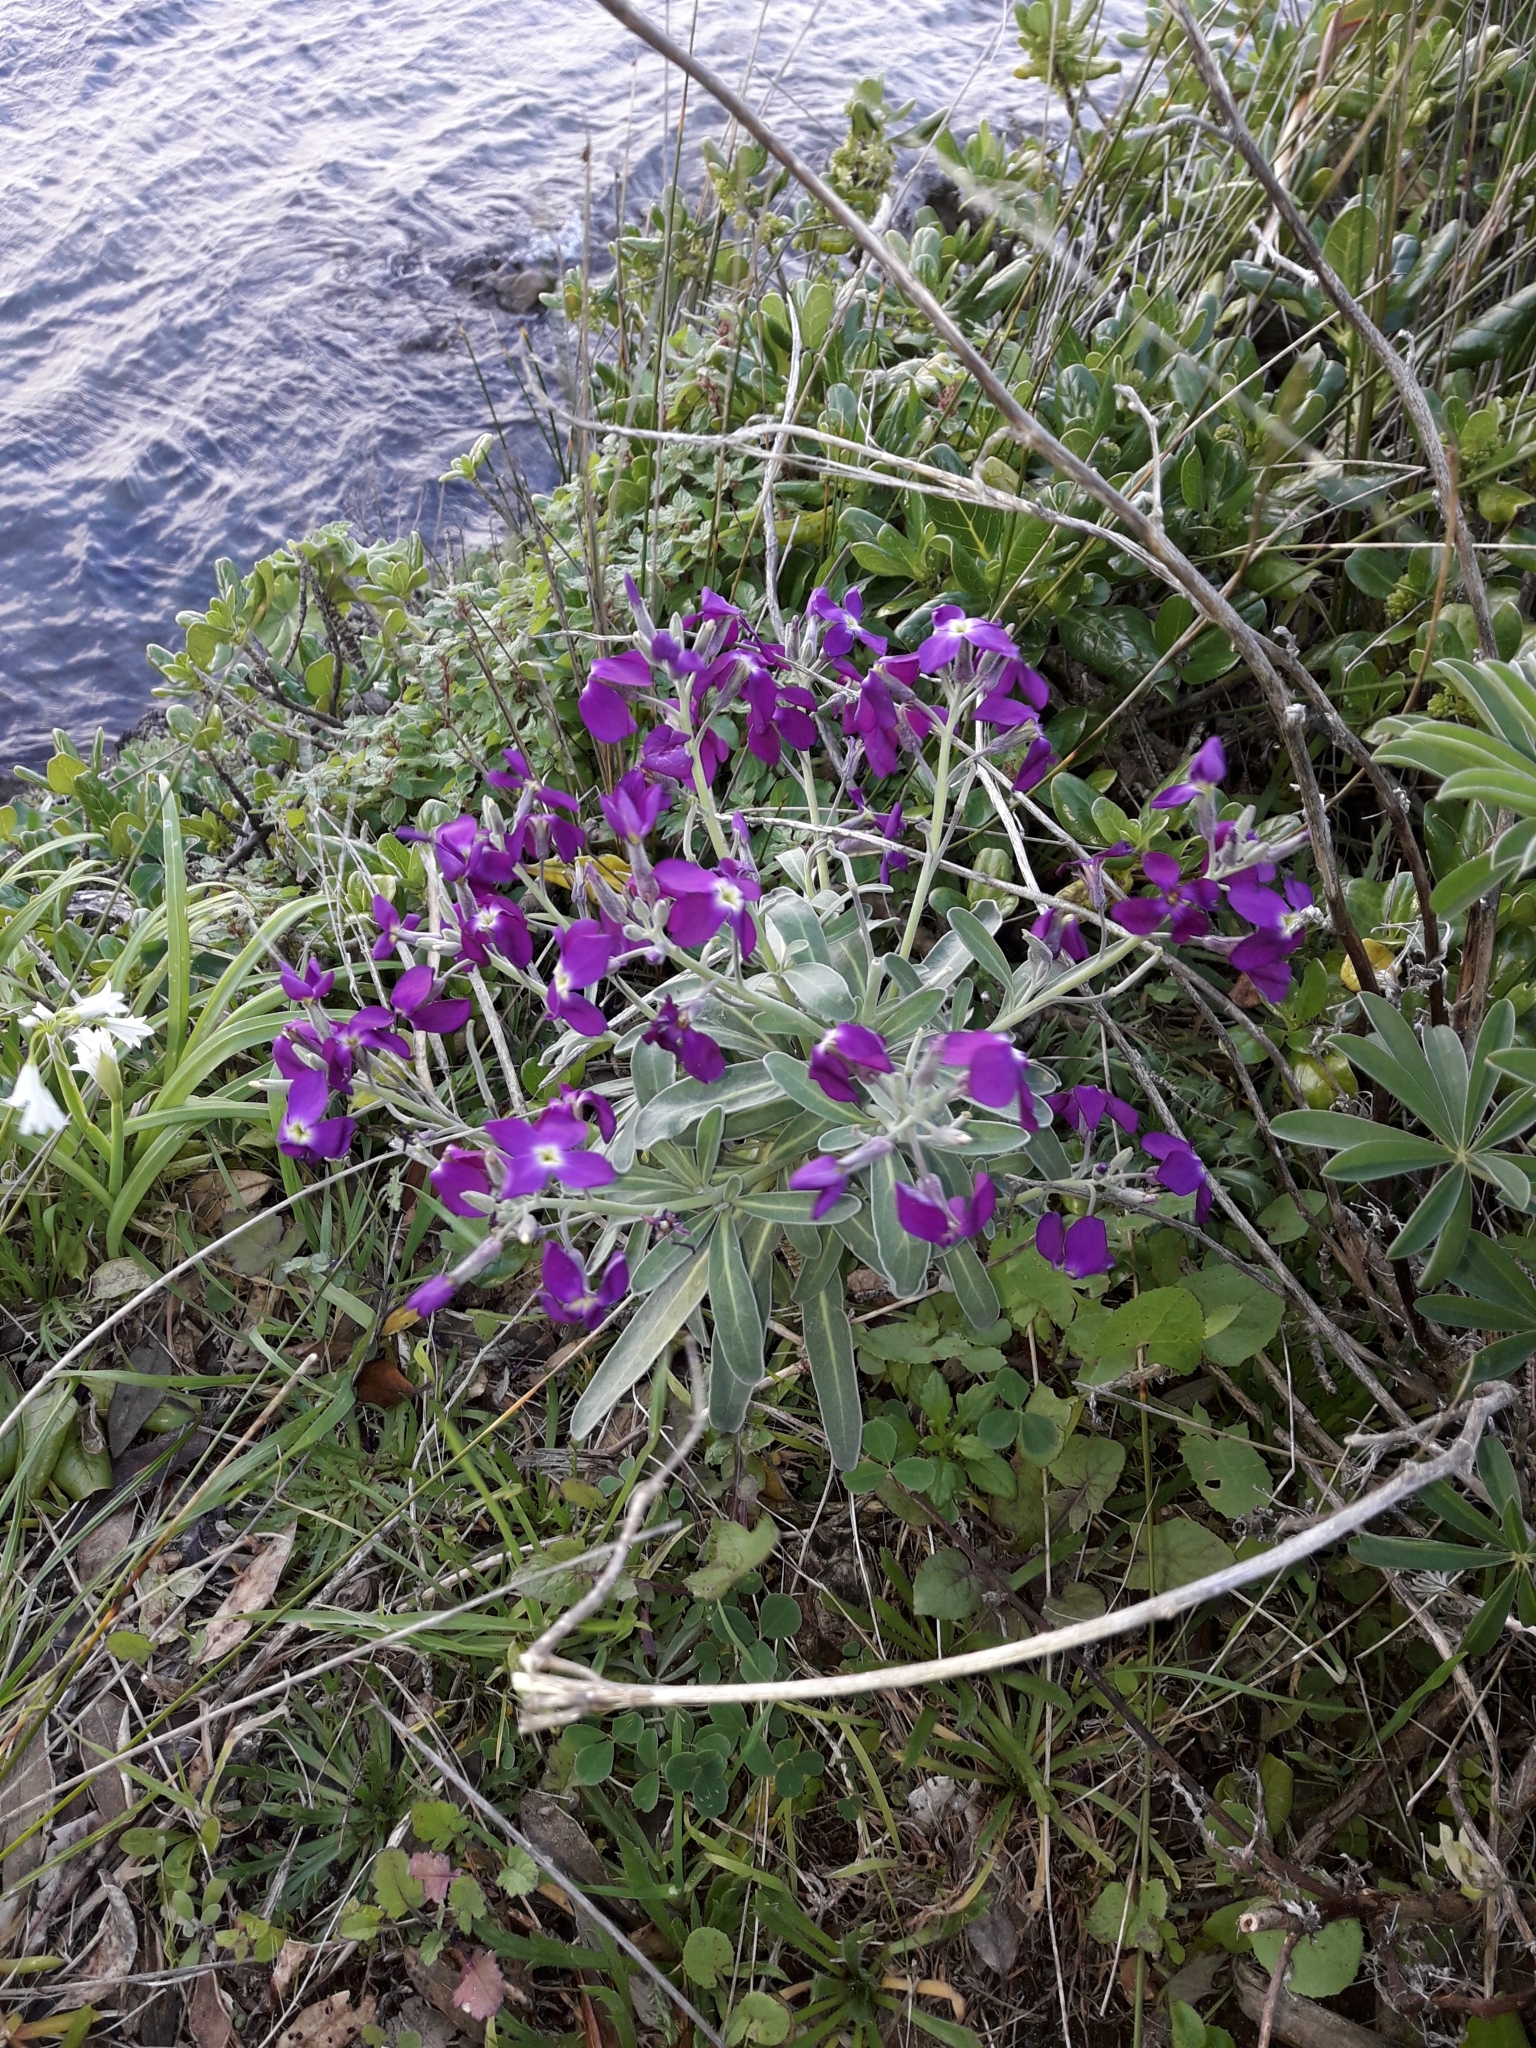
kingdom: Plantae
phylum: Tracheophyta
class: Magnoliopsida
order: Brassicales
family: Brassicaceae
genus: Matthiola
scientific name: Matthiola incana
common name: Hoary stock
